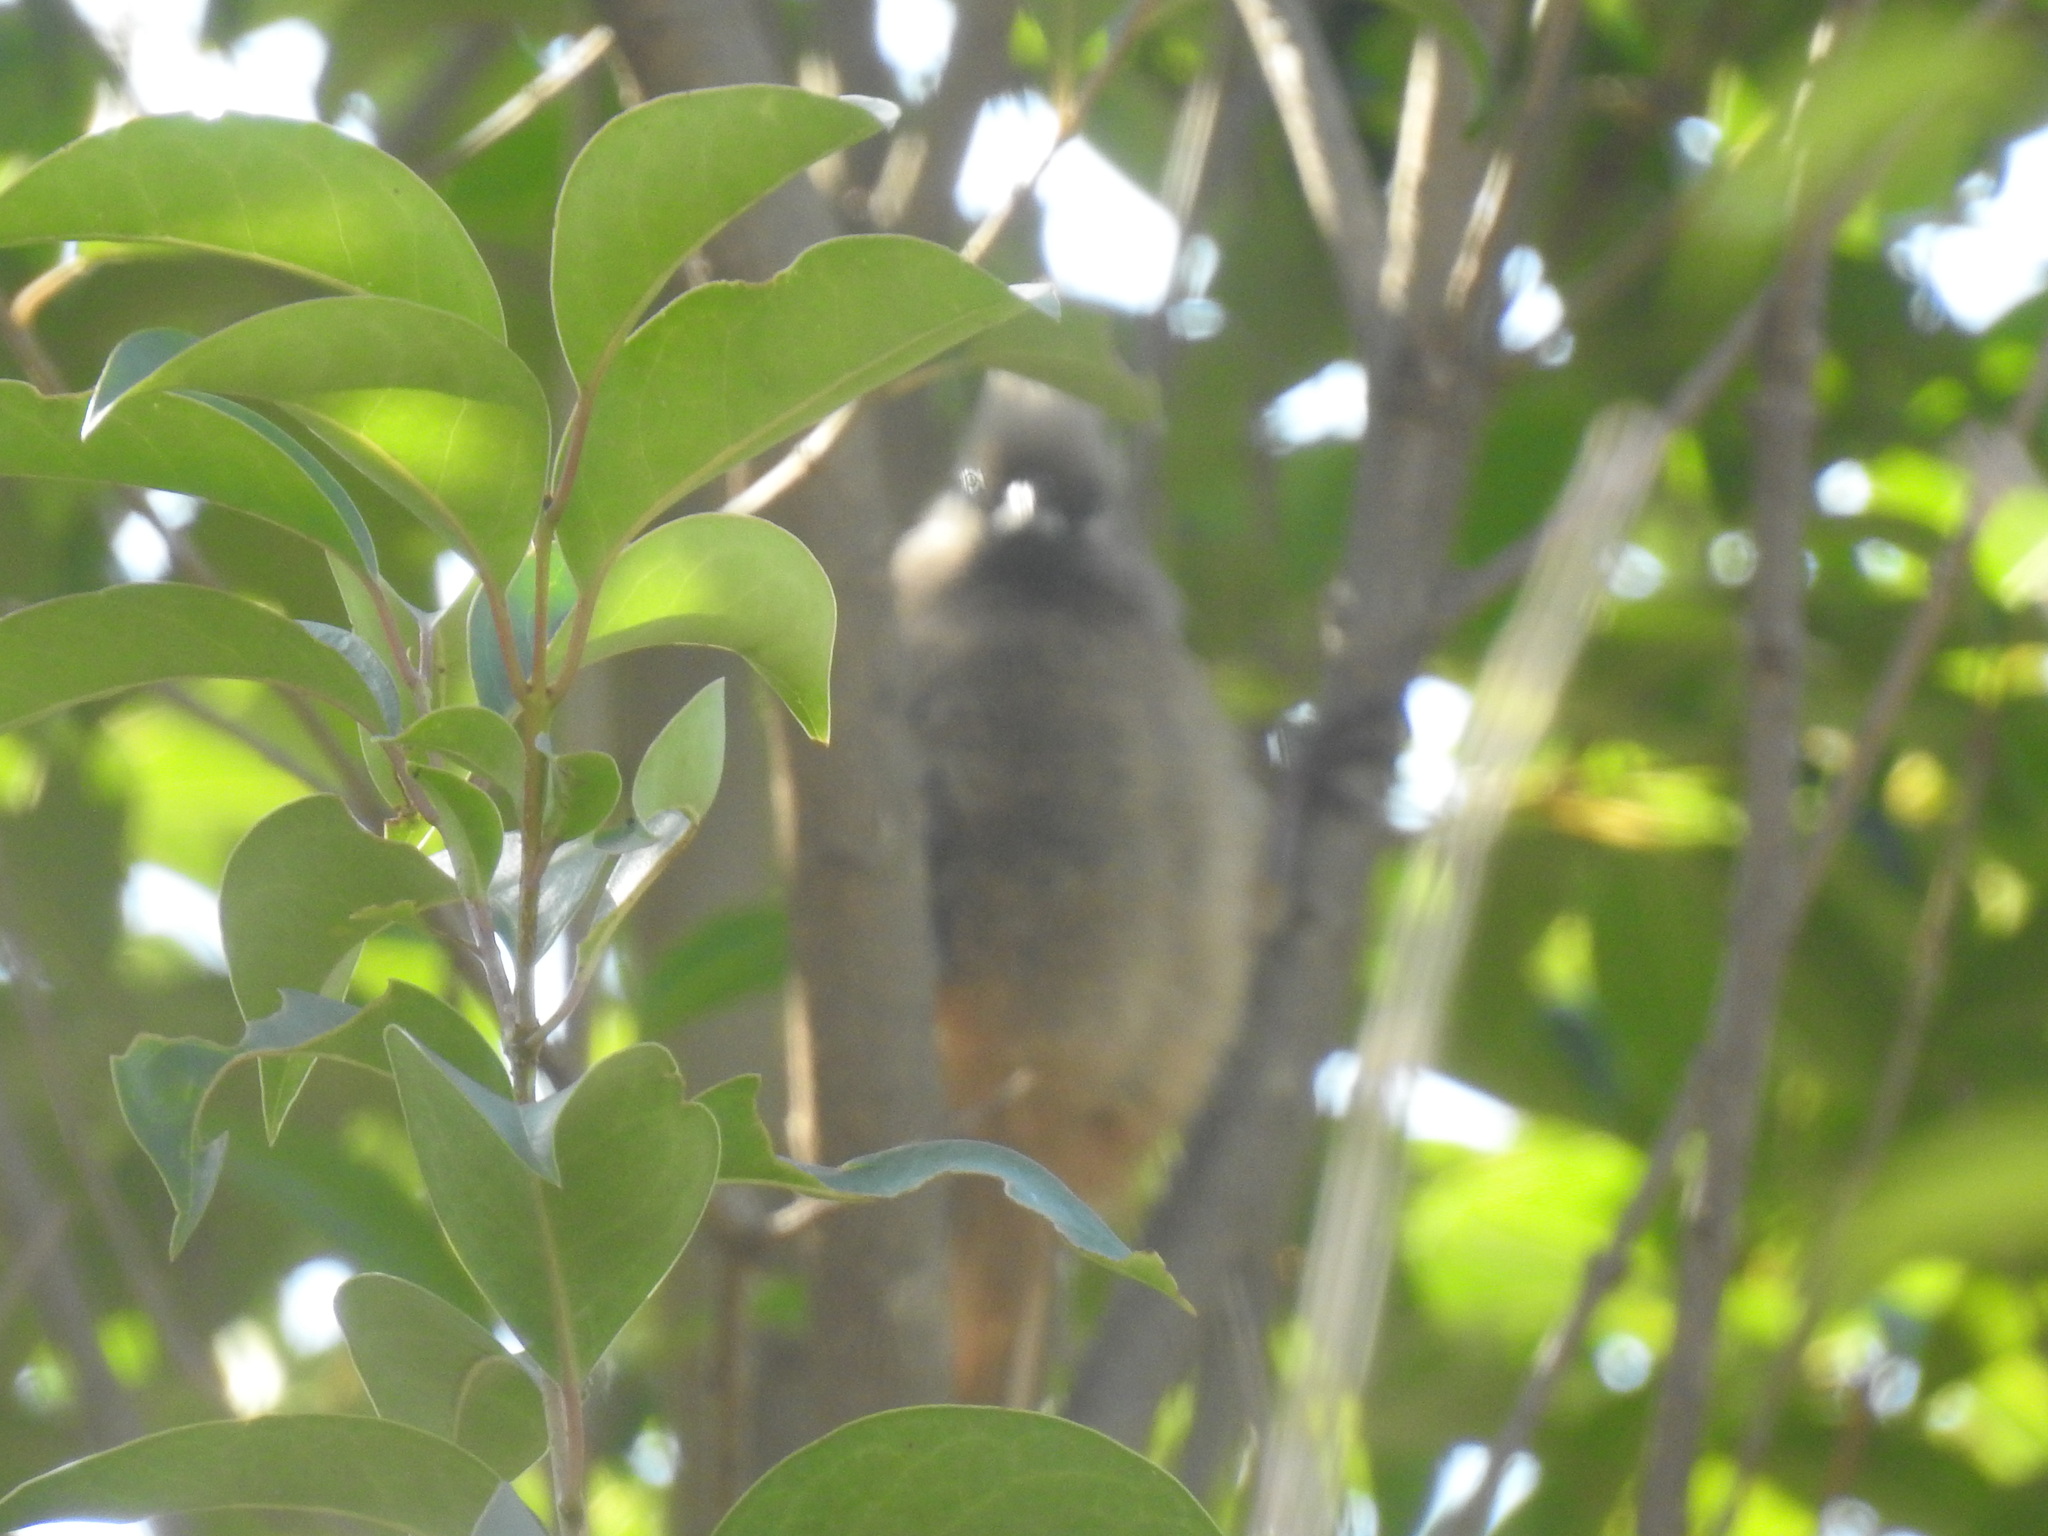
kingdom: Animalia
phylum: Chordata
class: Aves
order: Coliiformes
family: Coliidae
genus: Colius
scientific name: Colius striatus
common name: Speckled mousebird
